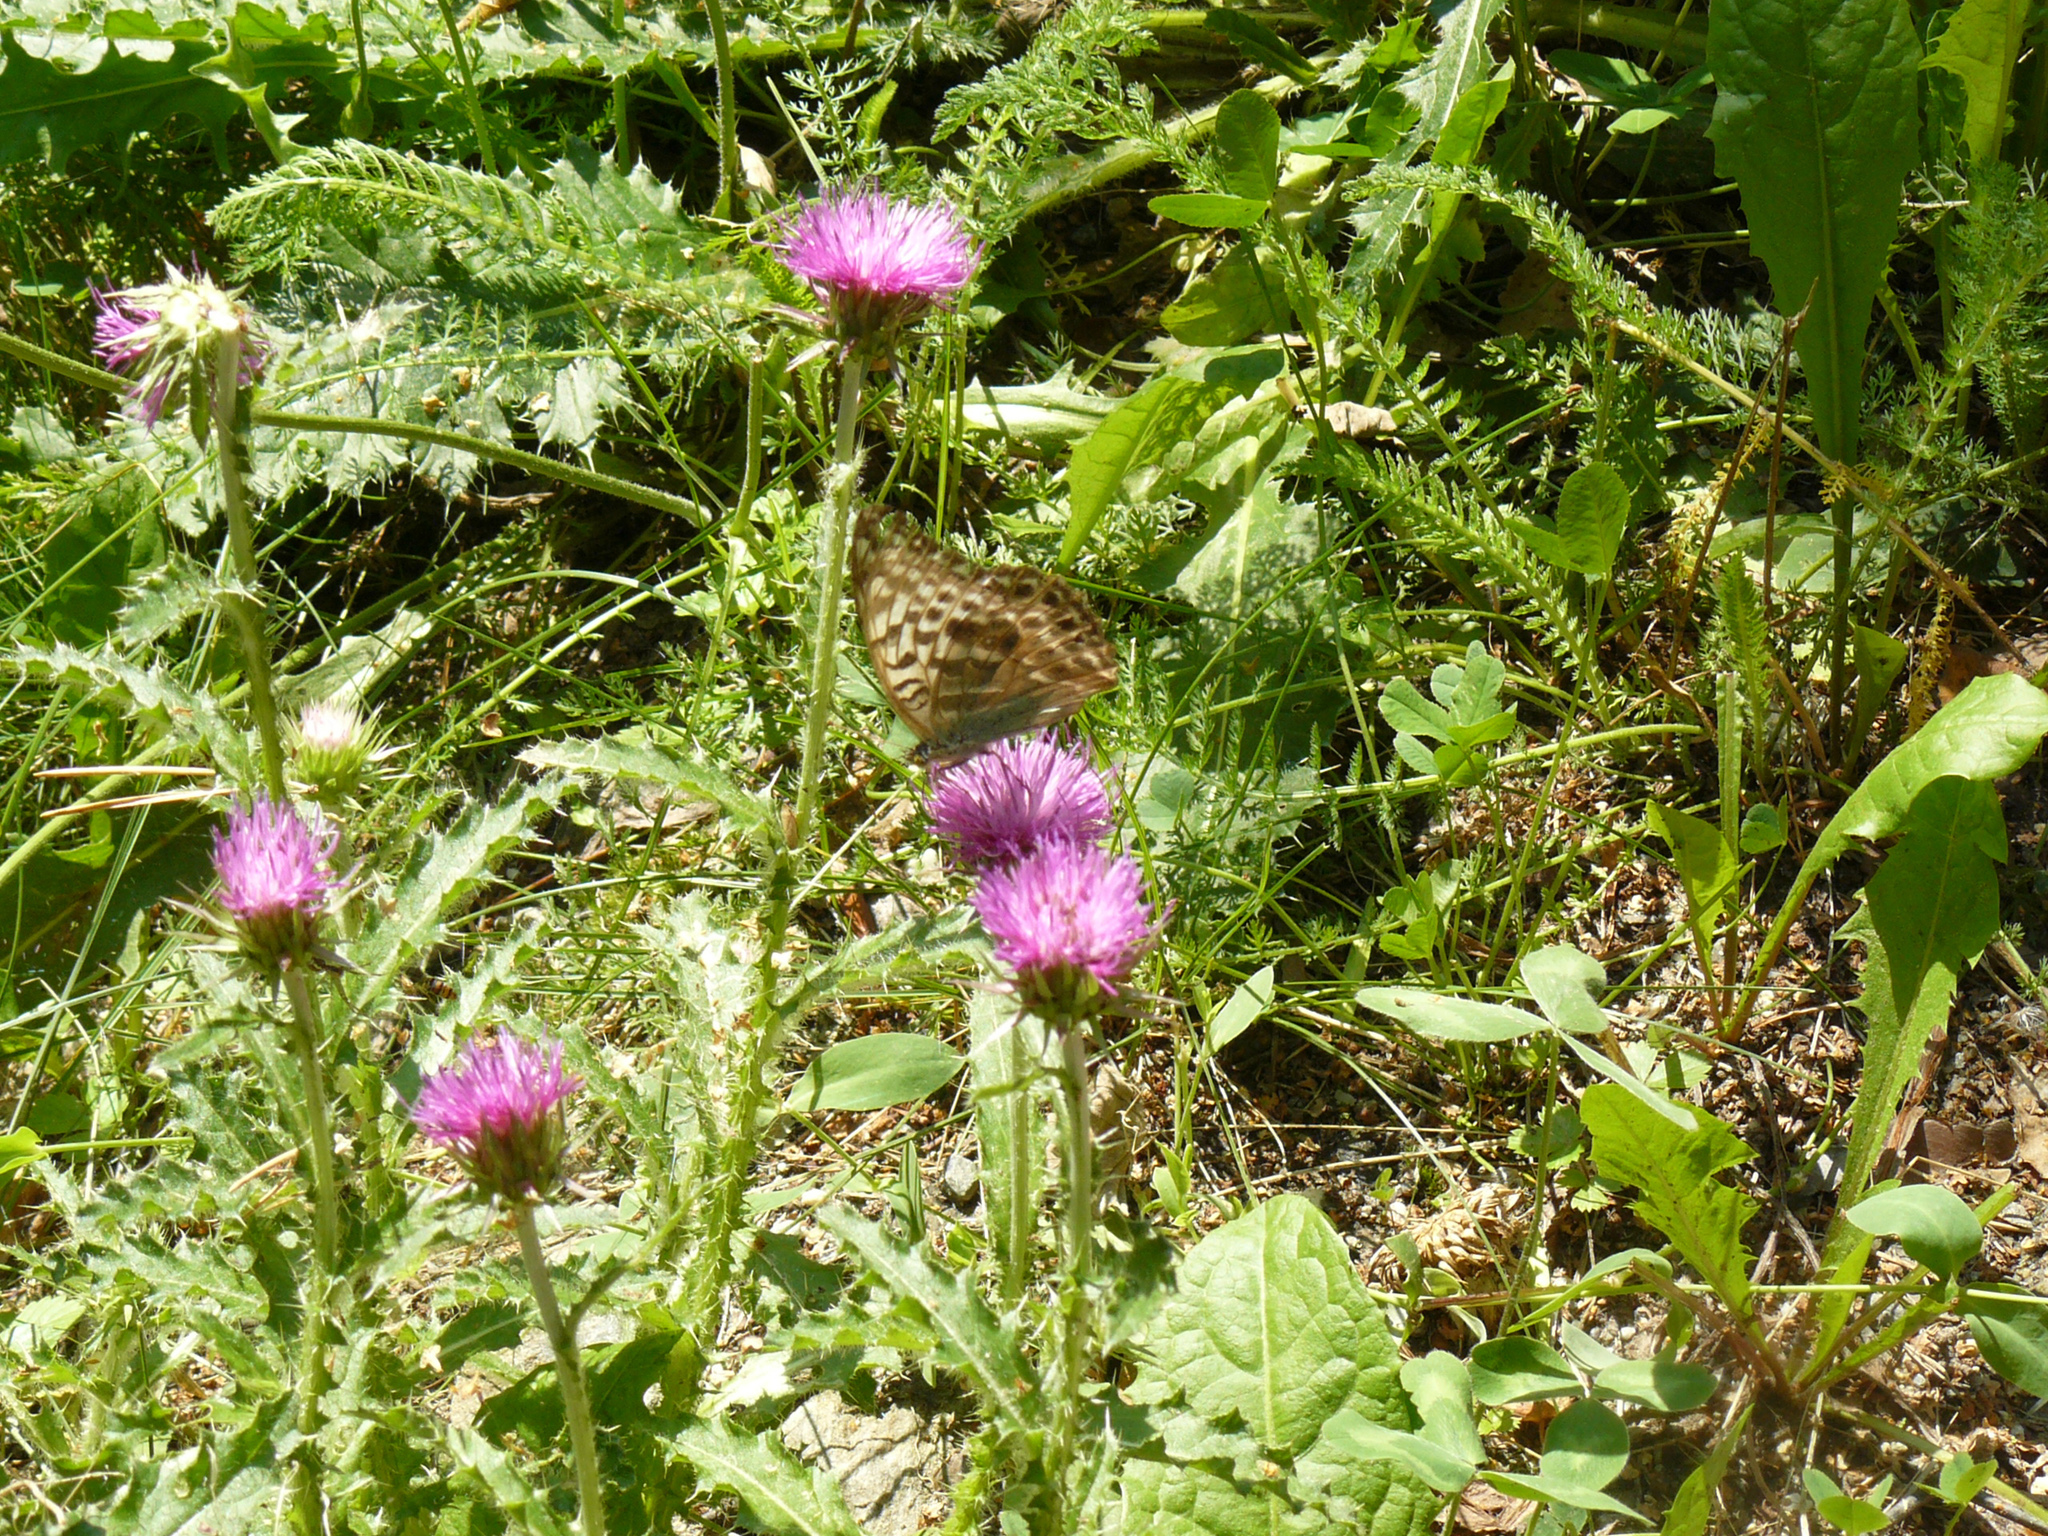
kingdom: Animalia
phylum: Arthropoda
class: Insecta
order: Lepidoptera
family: Nymphalidae
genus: Argynnis
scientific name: Argynnis paphia
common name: Silver-washed fritillary
